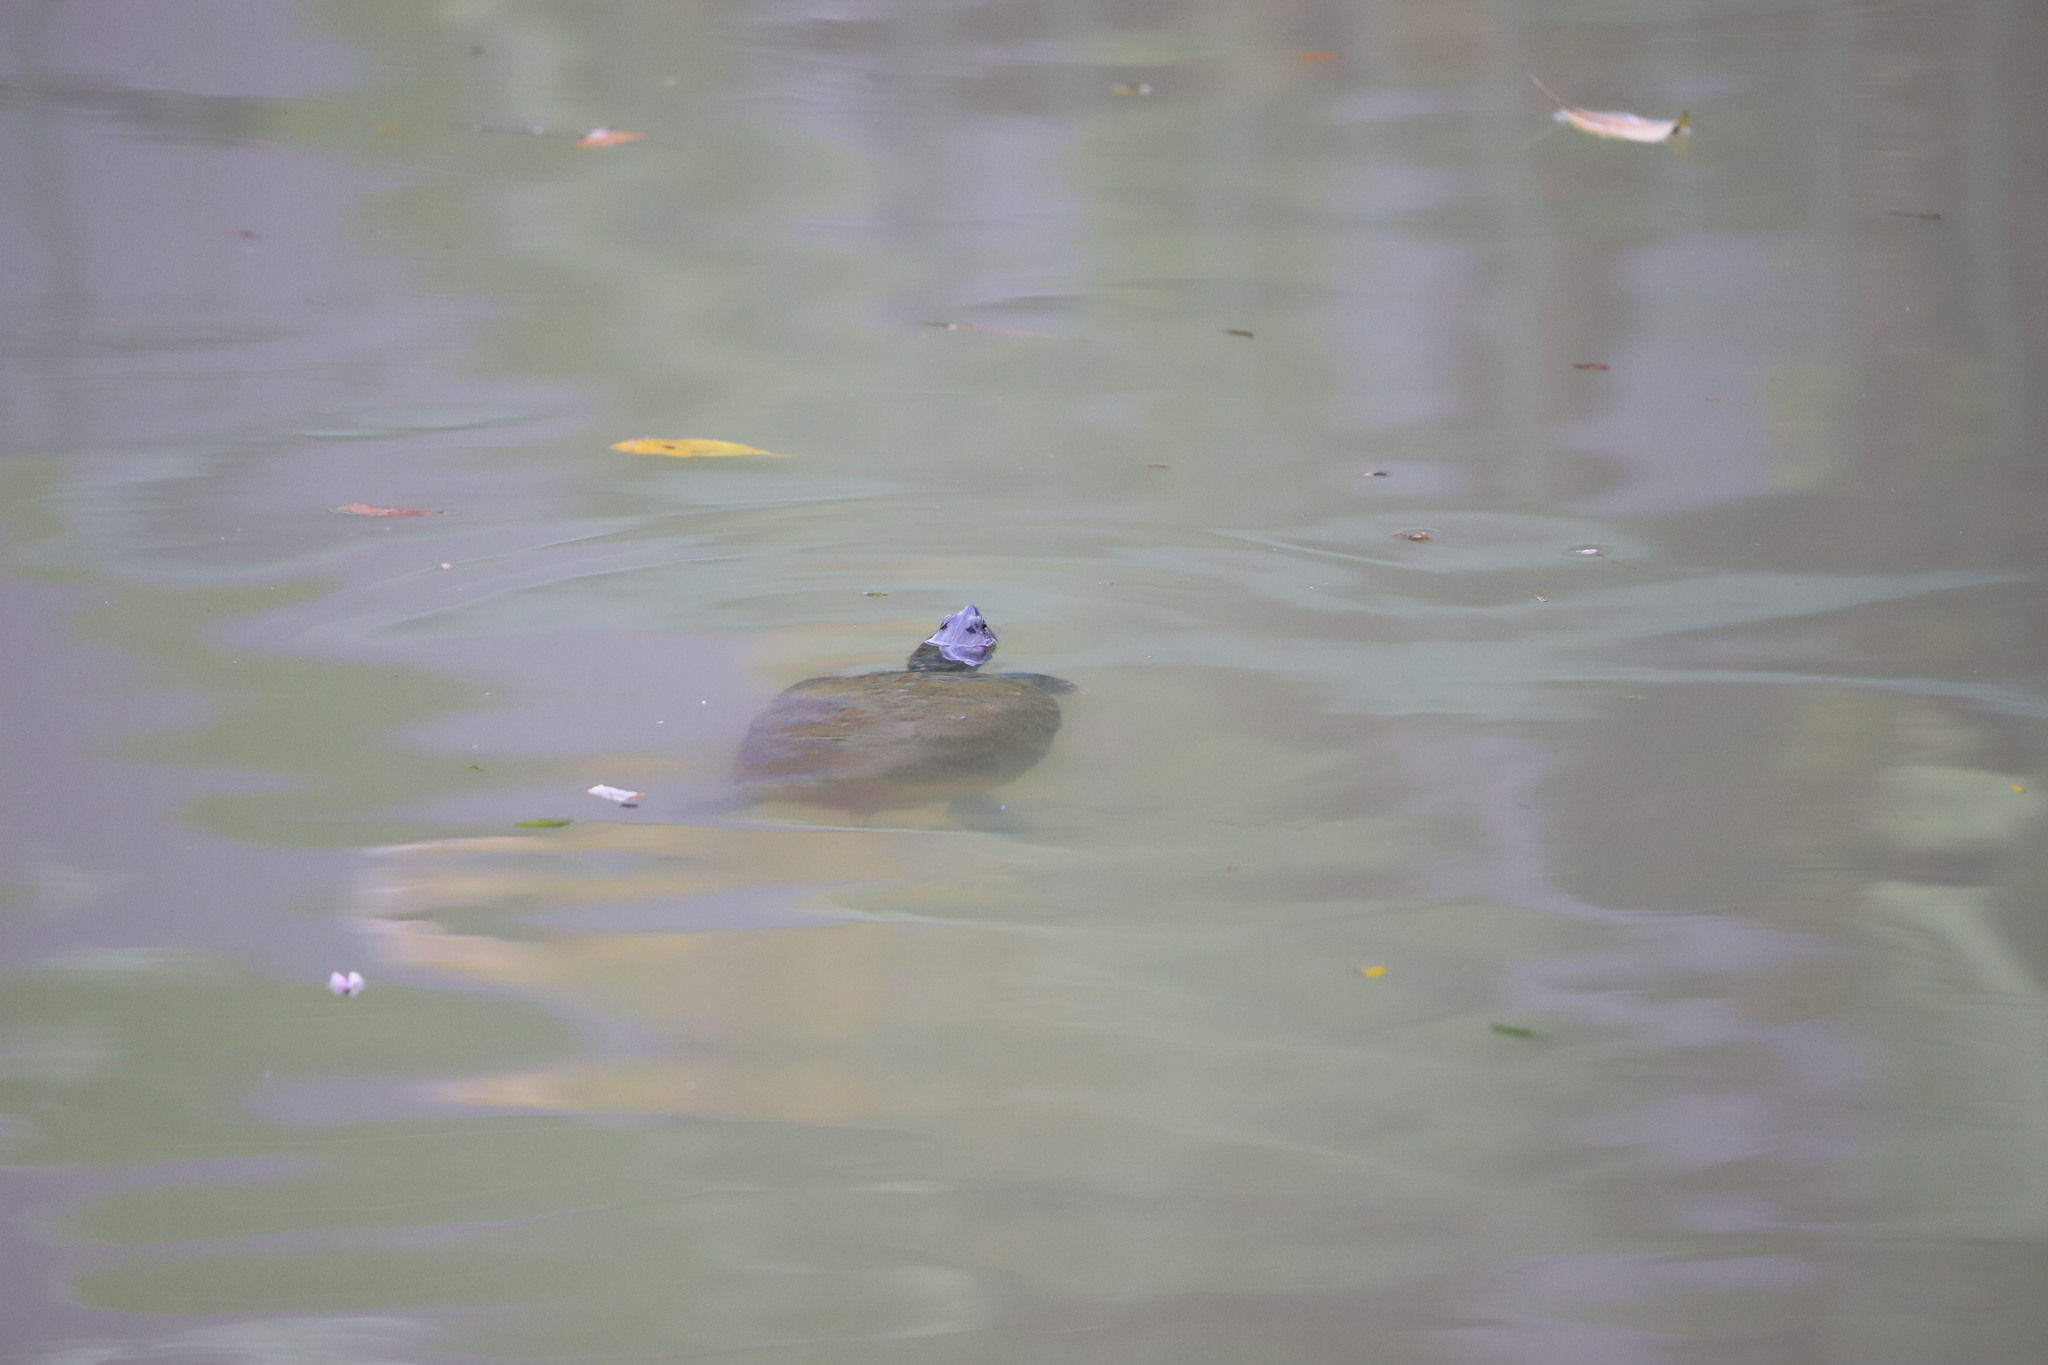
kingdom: Animalia
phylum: Chordata
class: Testudines
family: Emydidae
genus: Trachemys
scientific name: Trachemys scripta
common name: Slider
